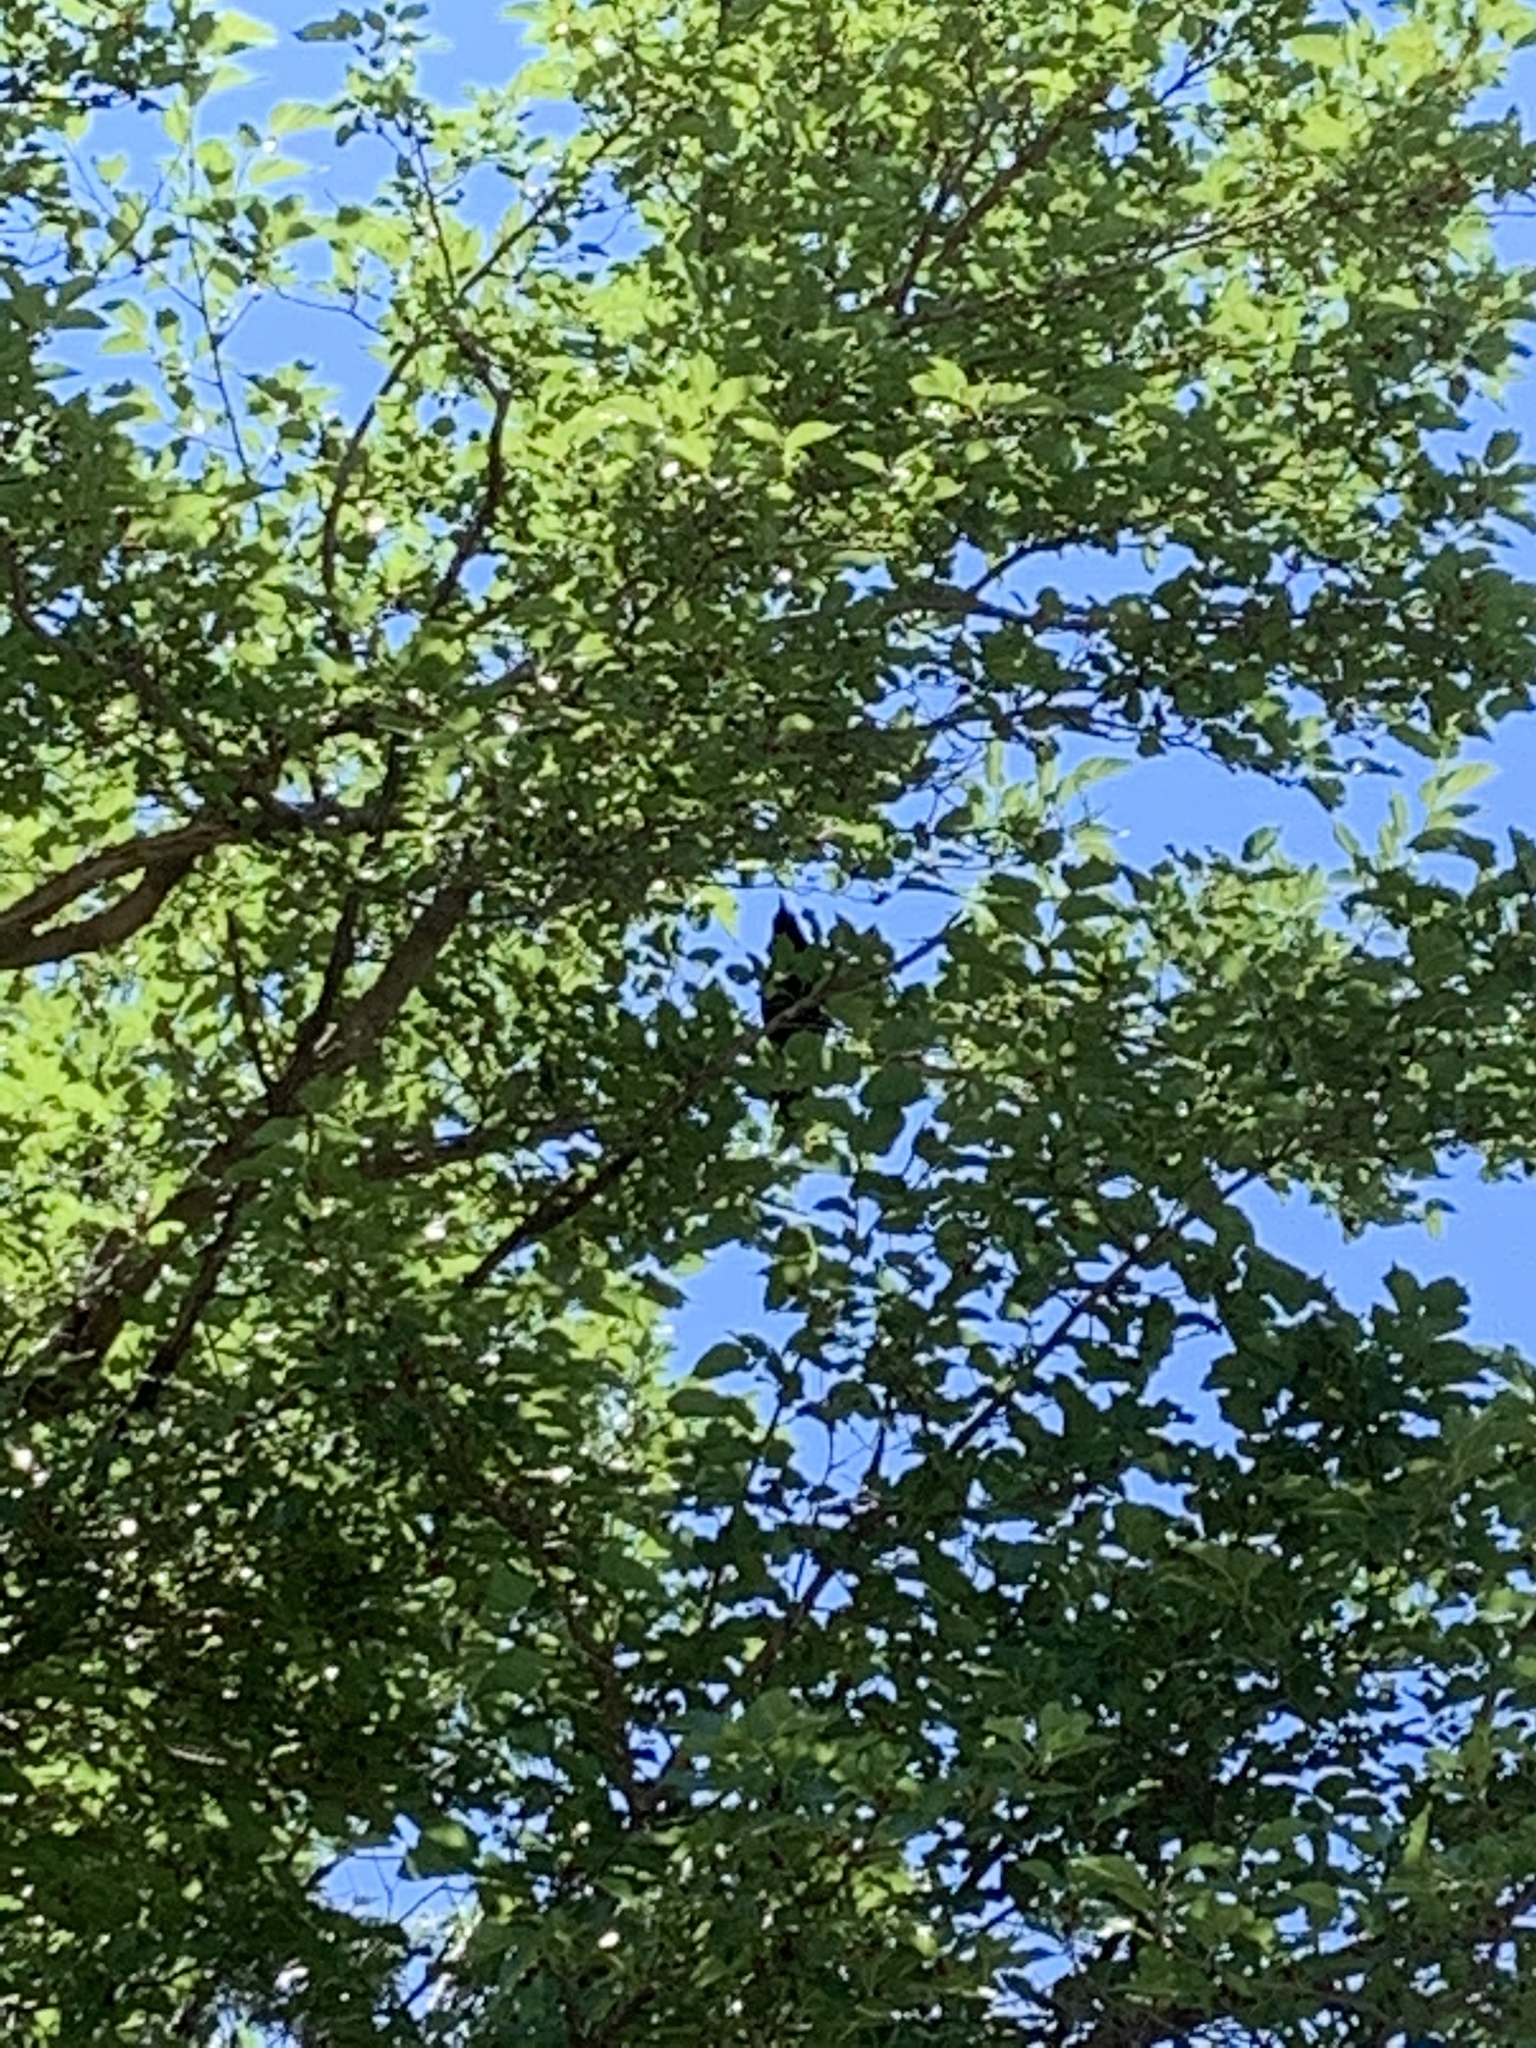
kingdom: Animalia
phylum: Chordata
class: Aves
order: Passeriformes
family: Corvidae
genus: Corvus
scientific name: Corvus brachyrhynchos
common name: American crow
